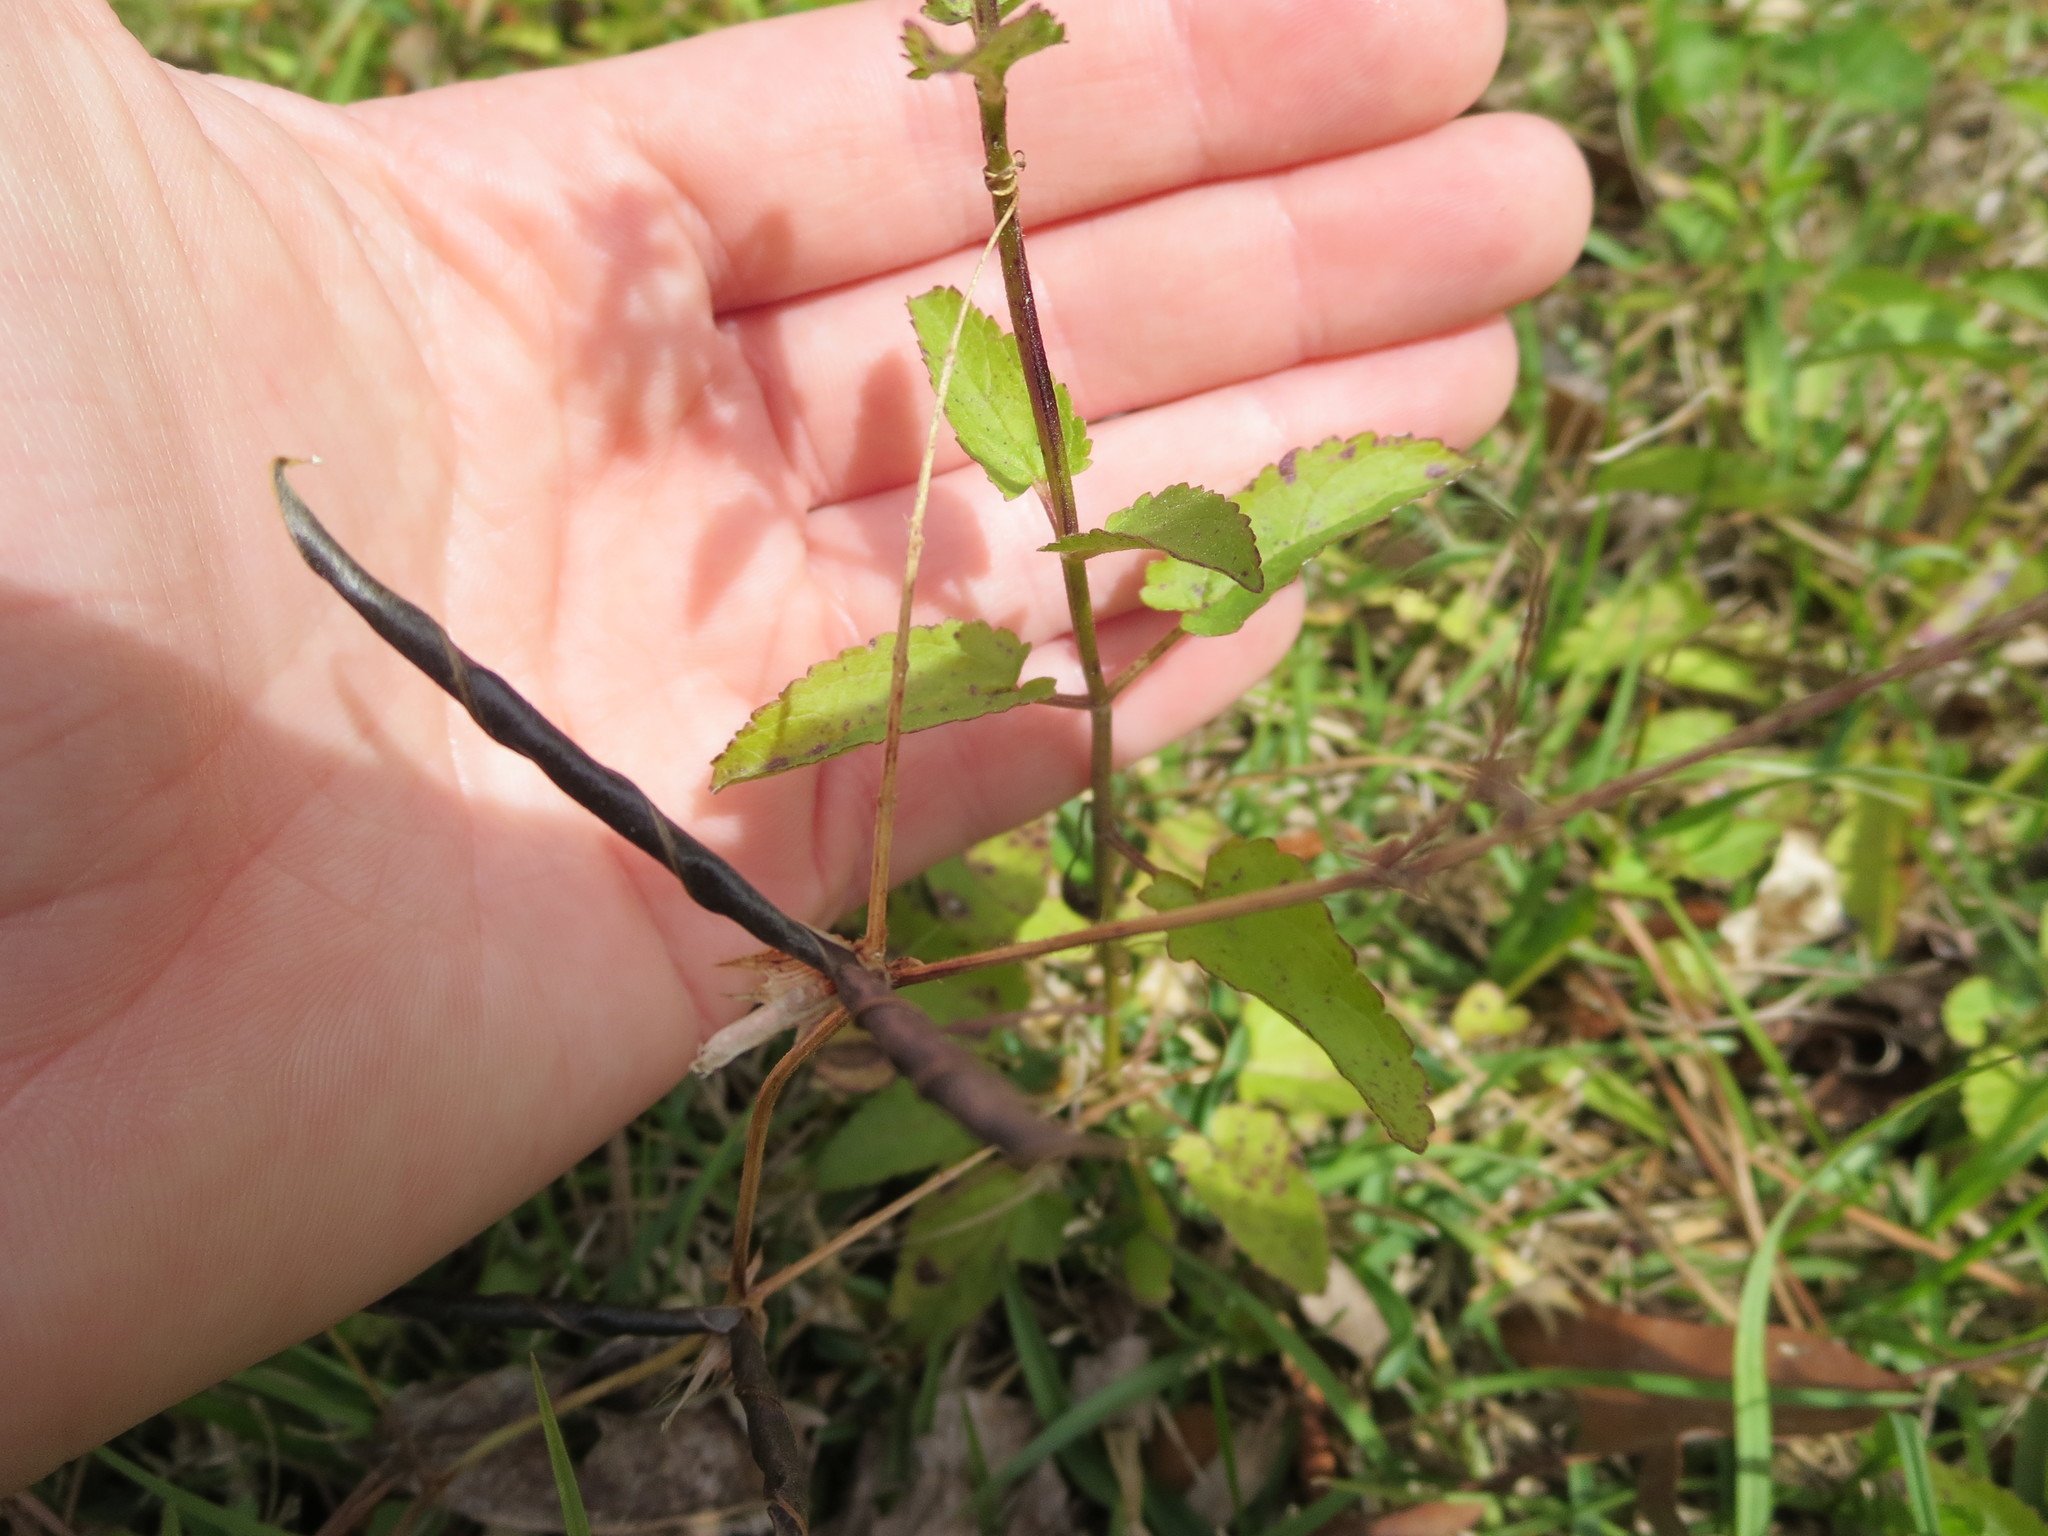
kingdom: Plantae
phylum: Tracheophyta
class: Magnoliopsida
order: Lamiales
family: Lamiaceae
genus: Stachys
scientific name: Stachys floridana
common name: Florida betony
